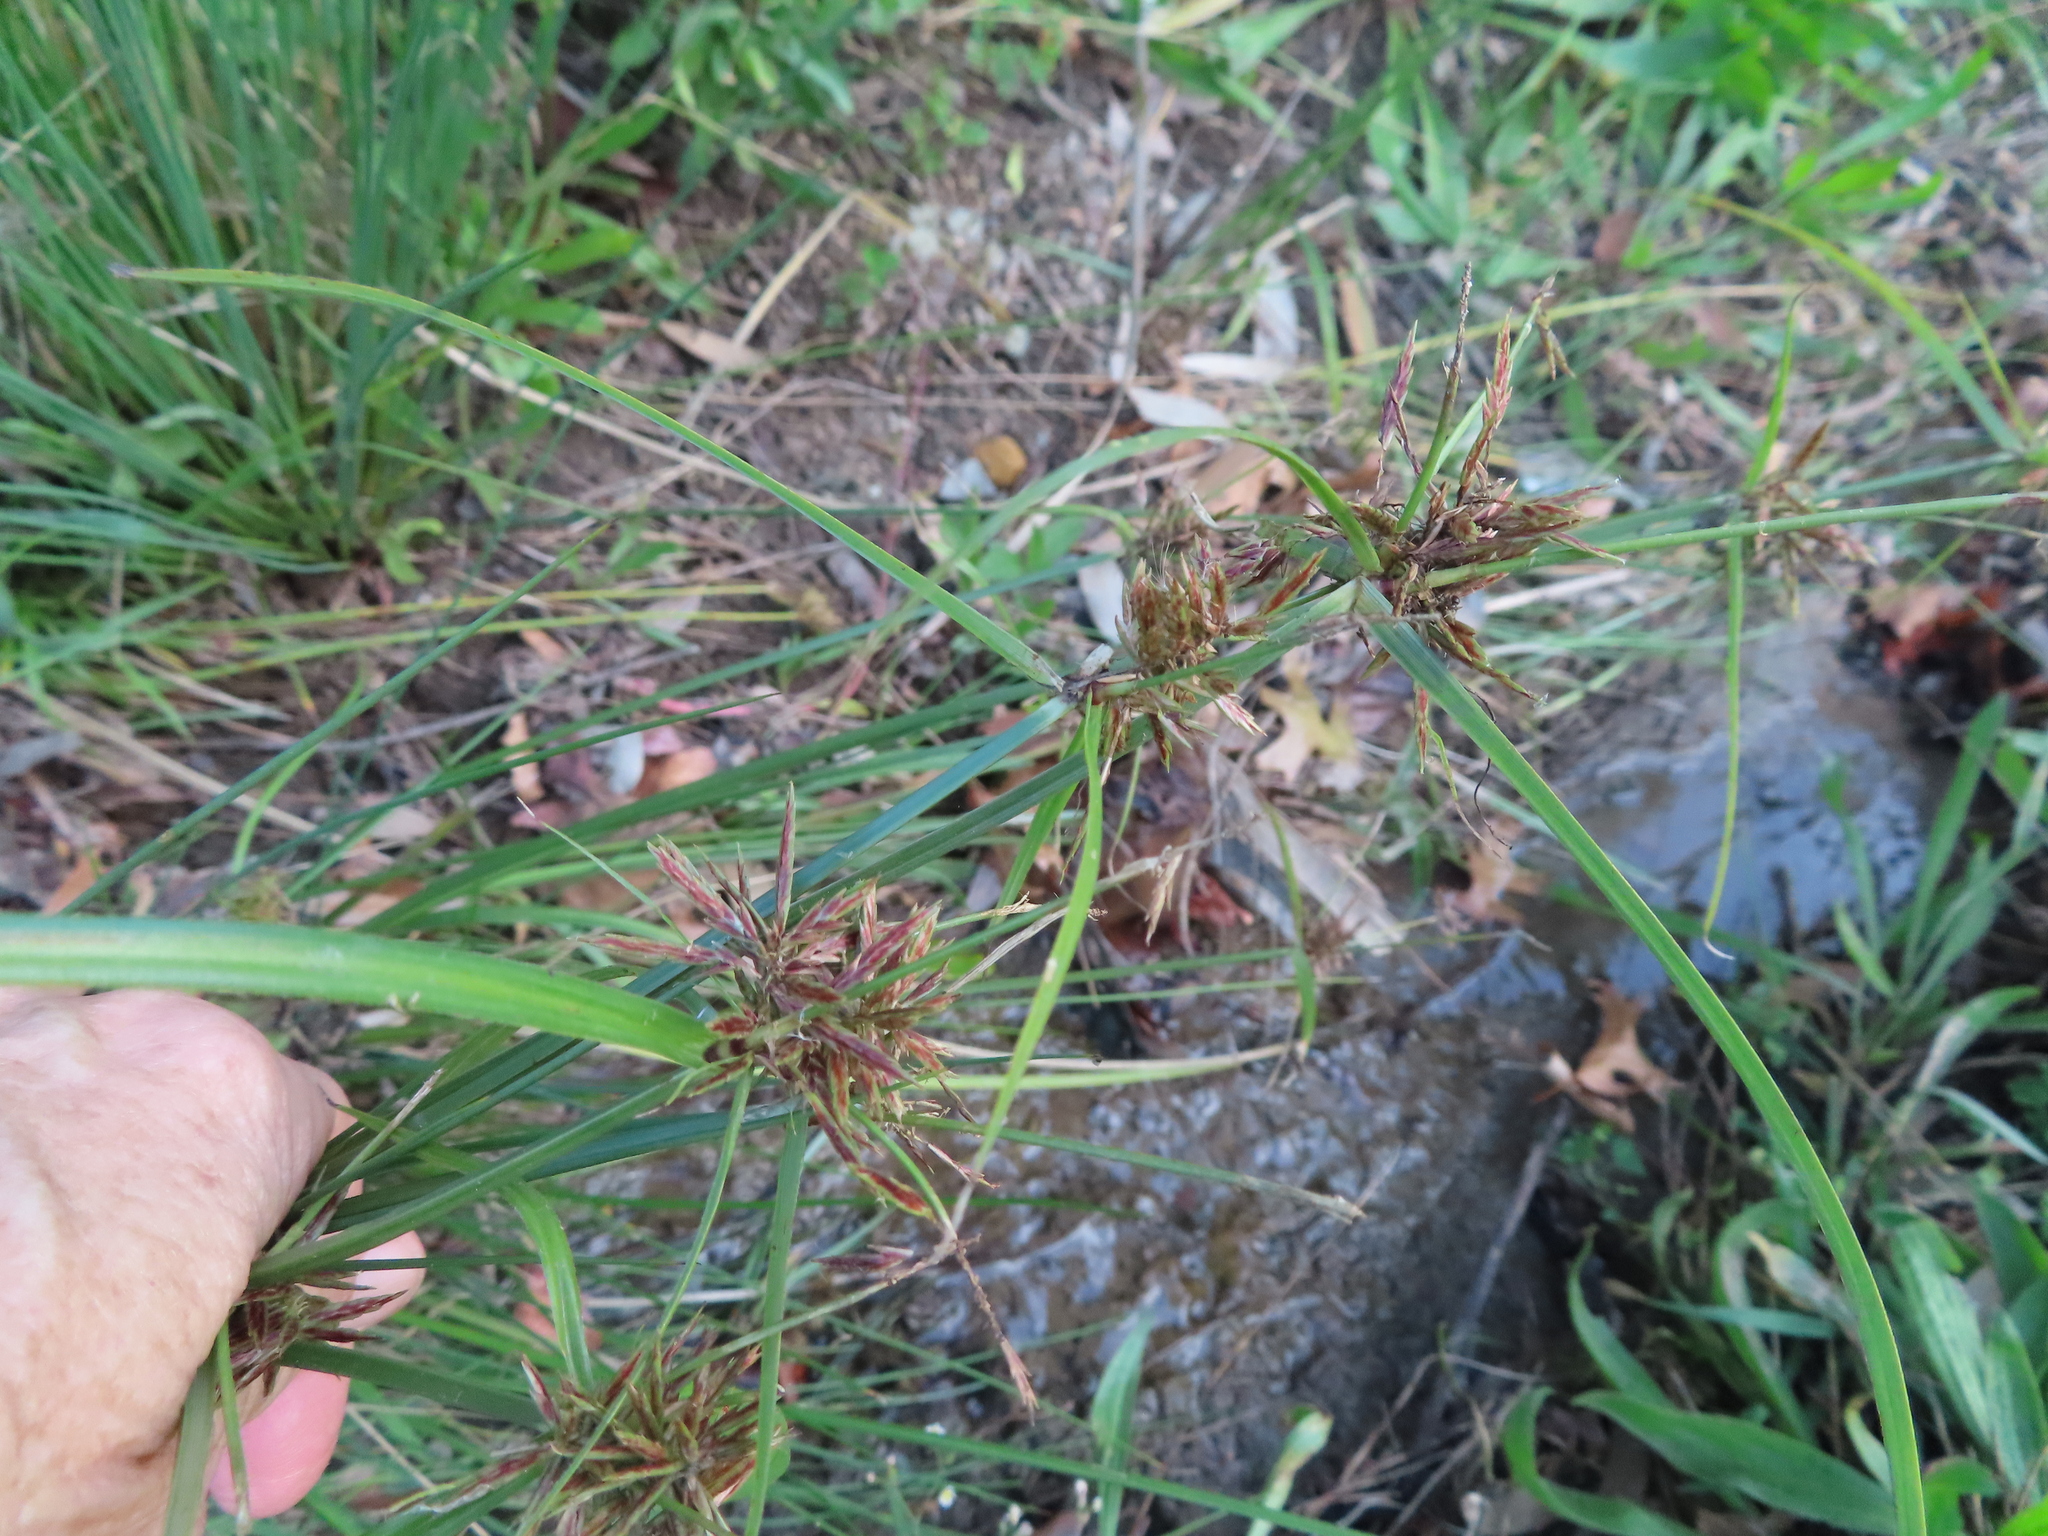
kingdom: Plantae
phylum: Tracheophyta
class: Liliopsida
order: Poales
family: Cyperaceae
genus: Cyperus
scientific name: Cyperus polystachyos
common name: Bunchy flat sedge
